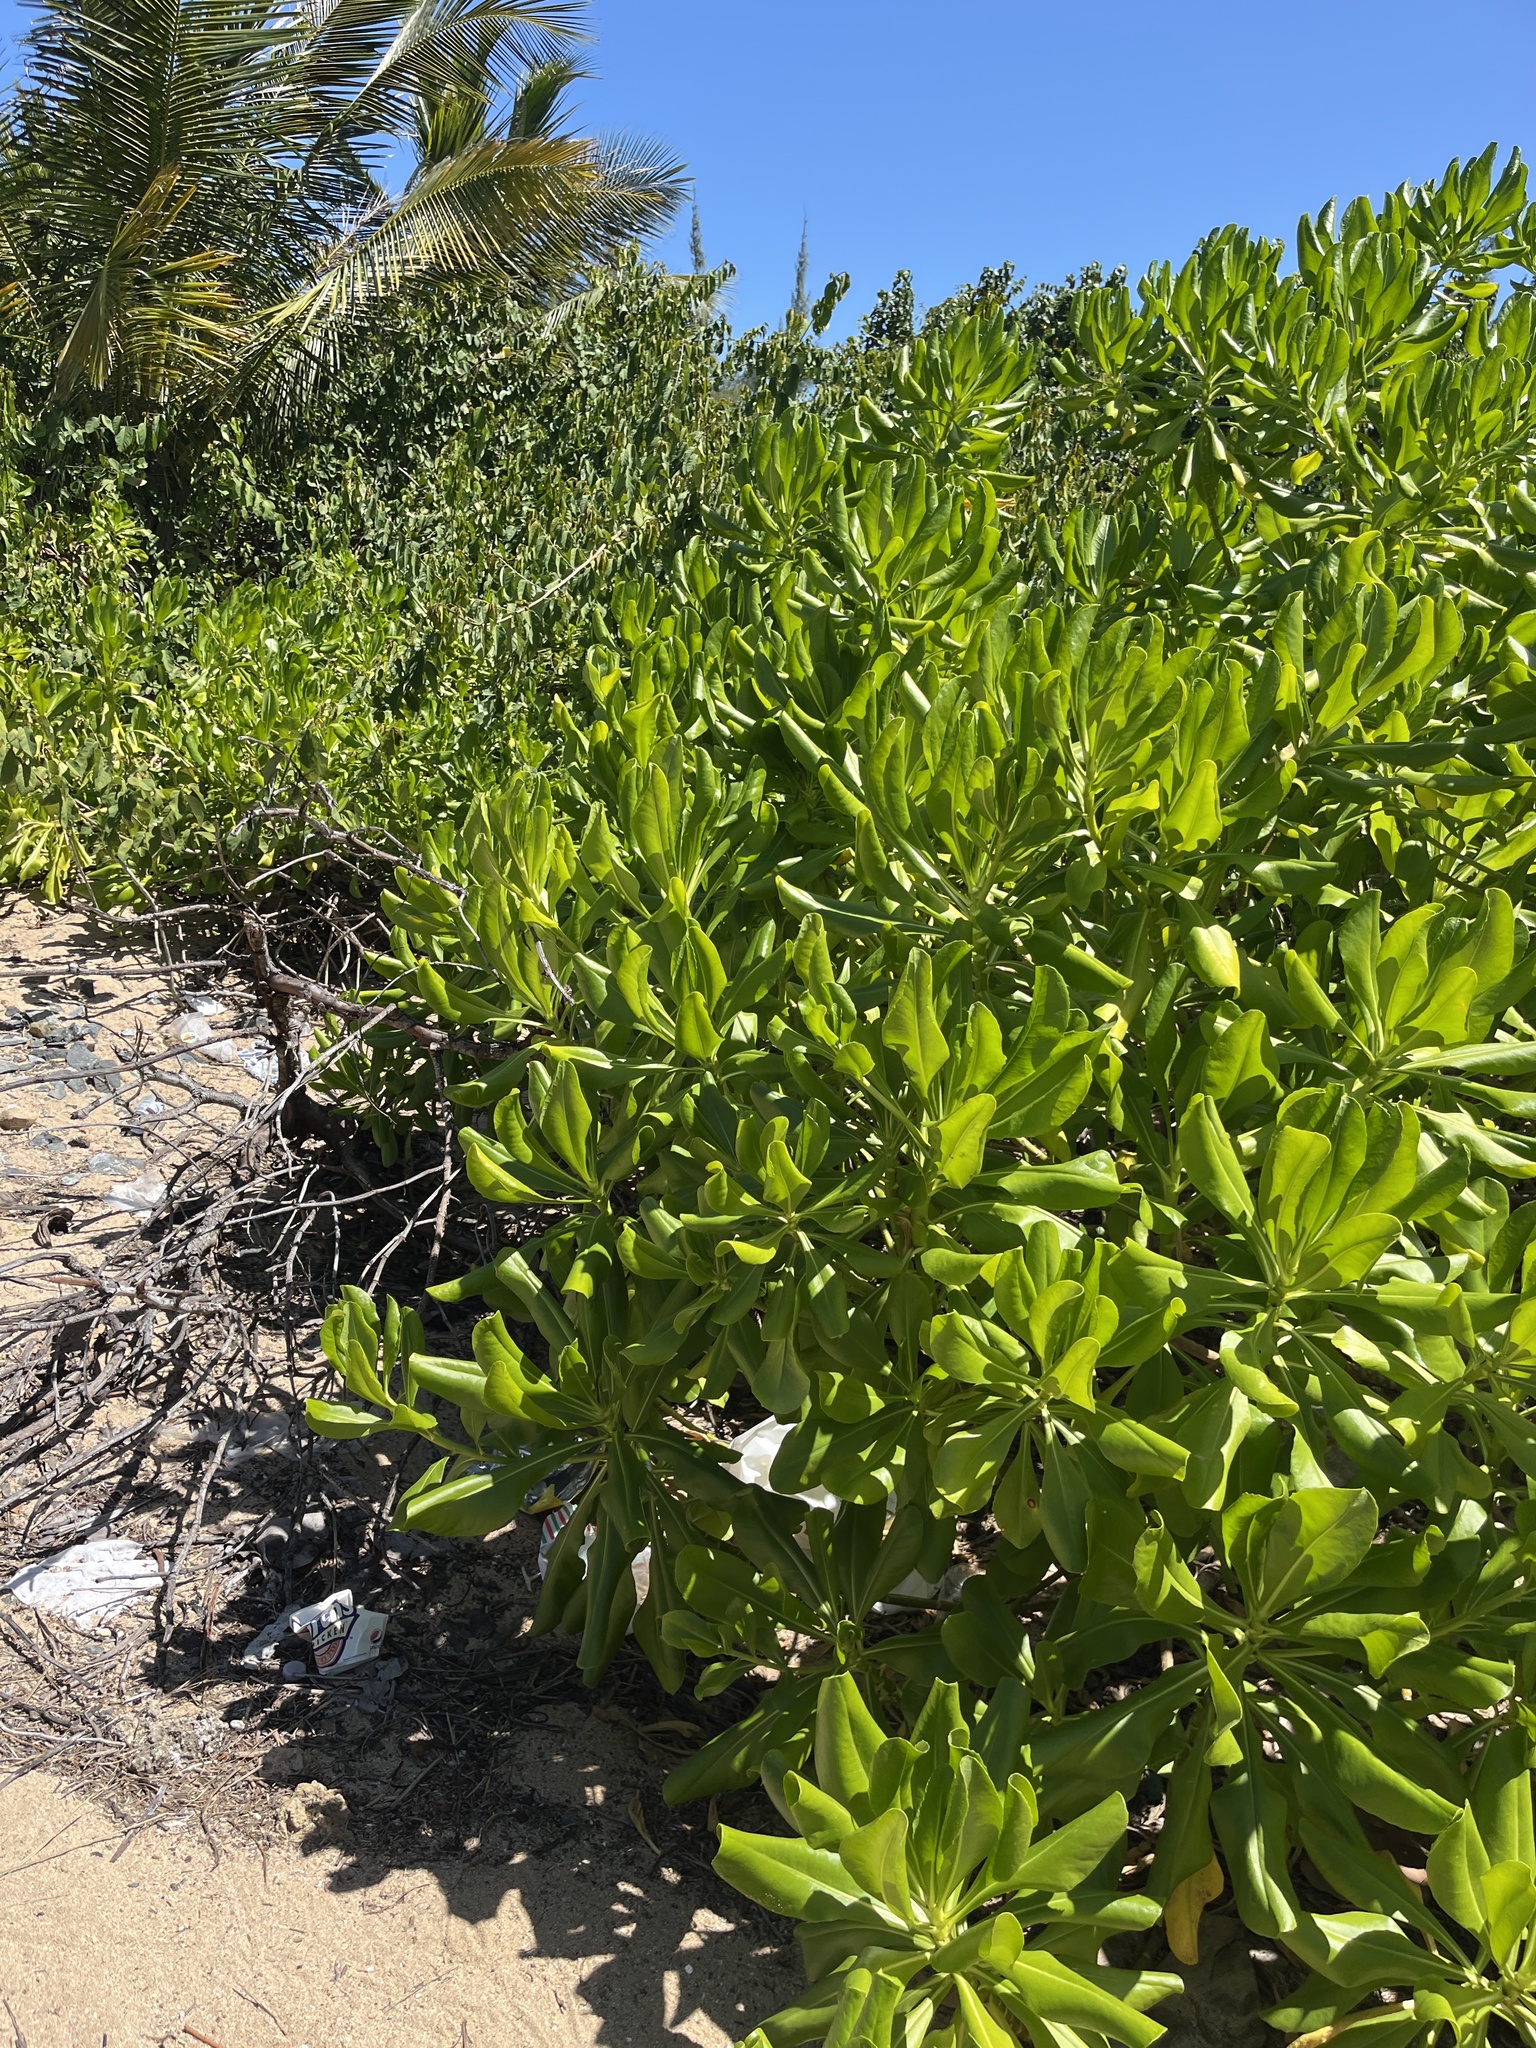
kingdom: Plantae
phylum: Tracheophyta
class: Magnoliopsida
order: Asterales
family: Goodeniaceae
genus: Scaevola
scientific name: Scaevola taccada
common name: Sea lettucetree
